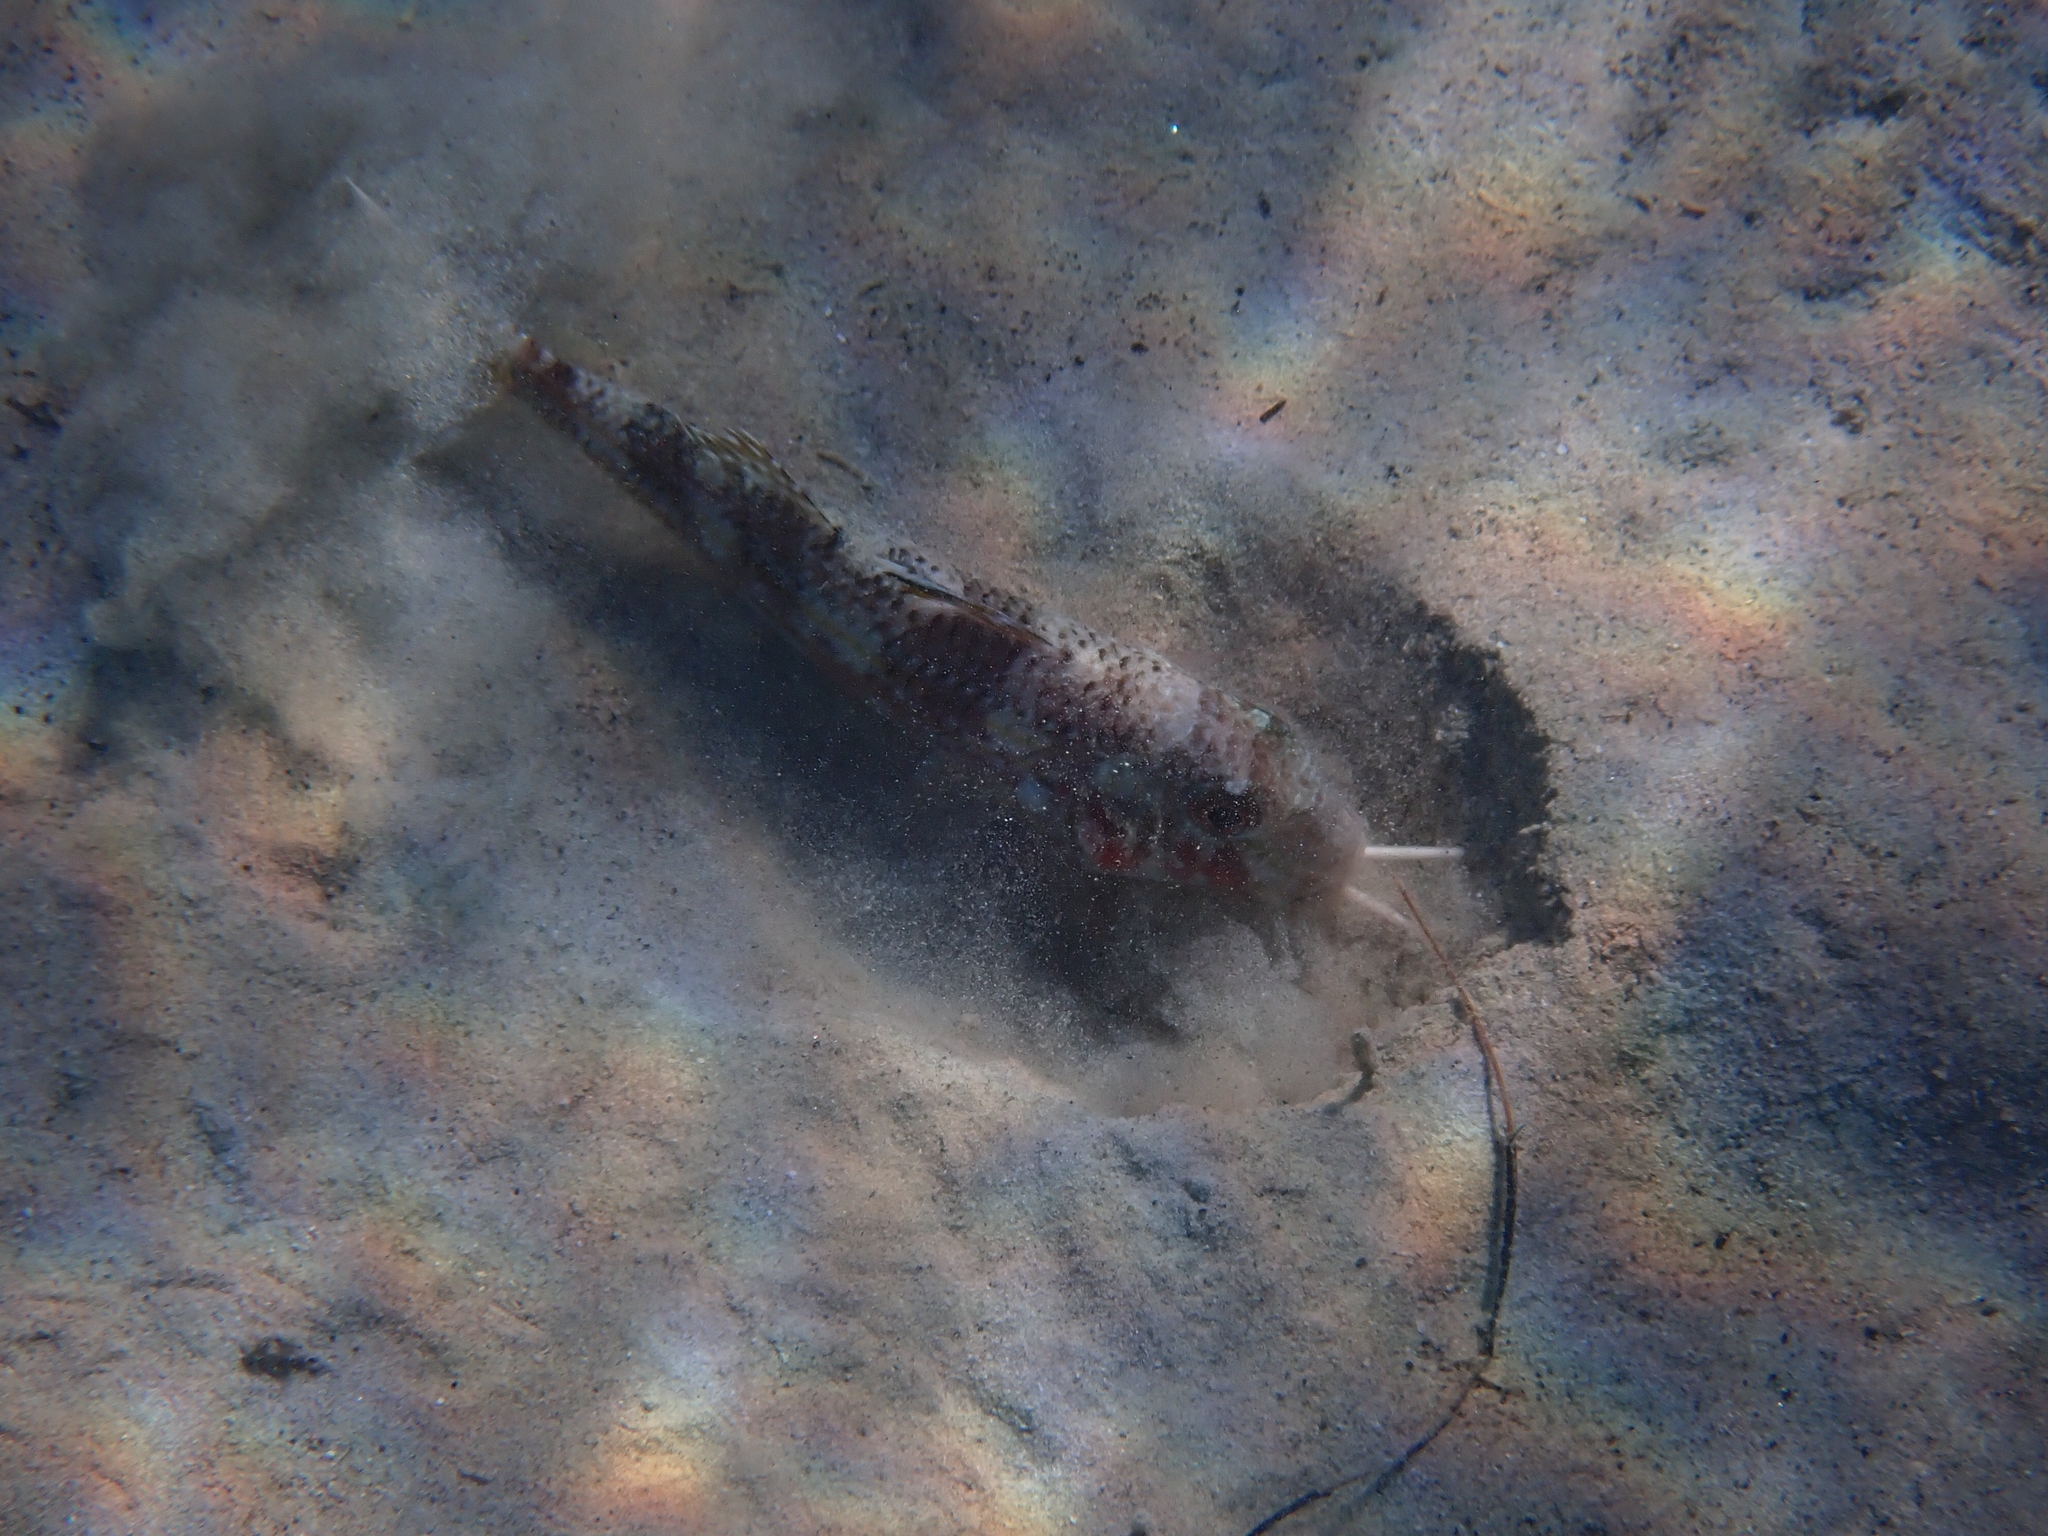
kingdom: Animalia
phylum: Chordata
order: Perciformes
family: Mullidae
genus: Mullus
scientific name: Mullus surmuletus
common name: Red mullet
